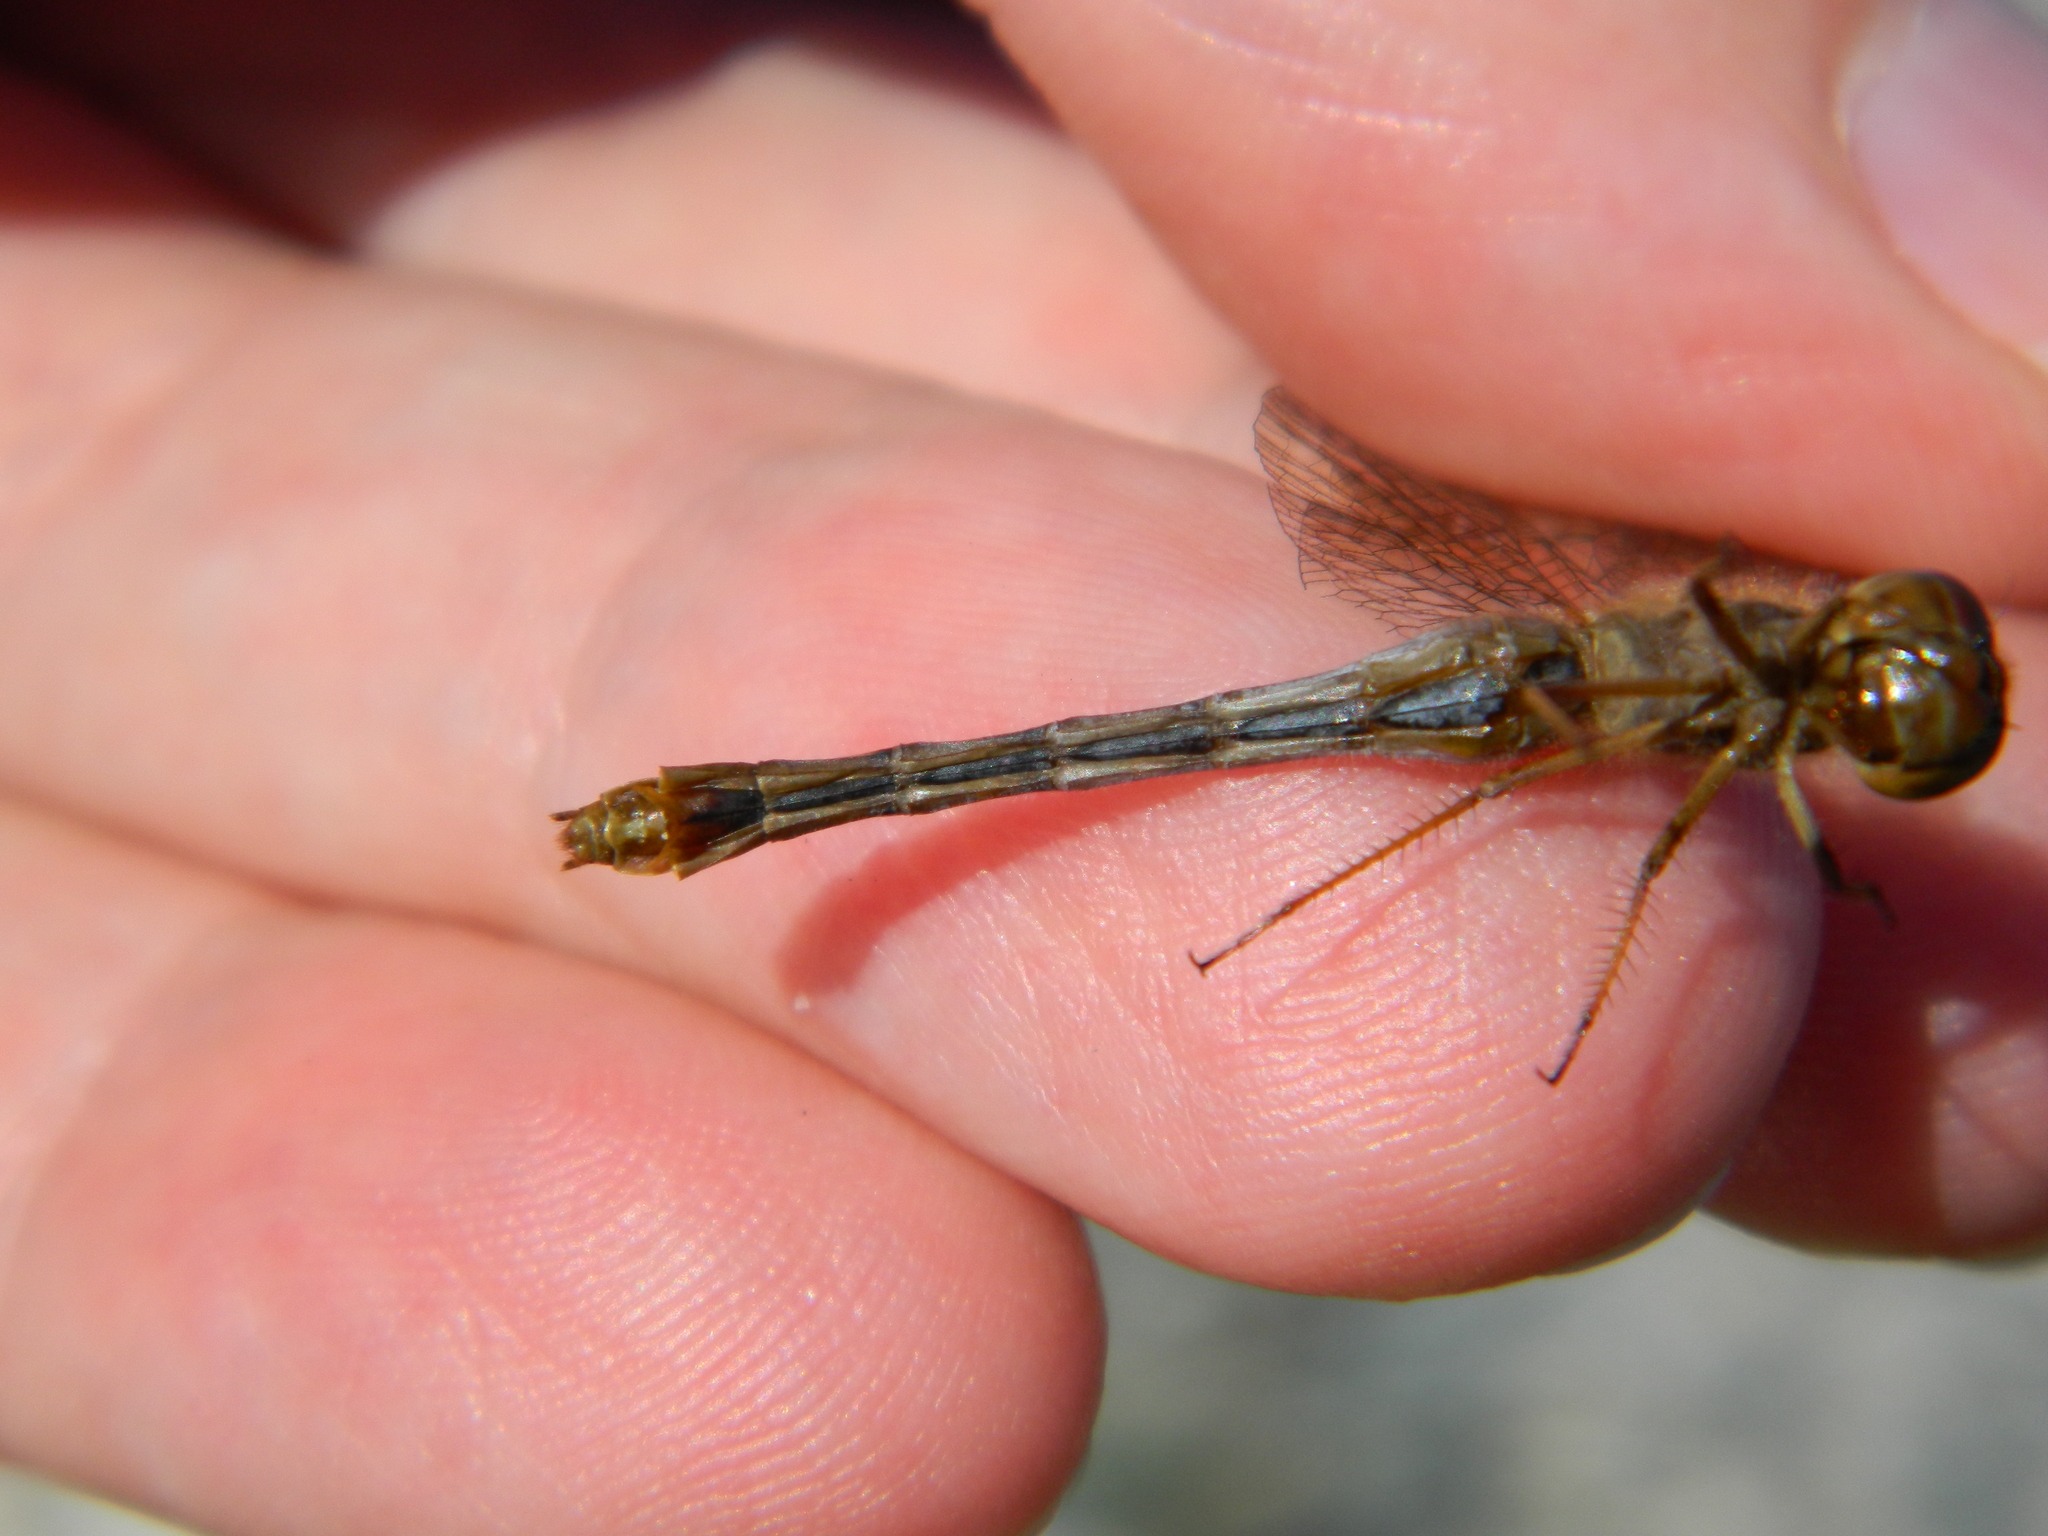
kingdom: Animalia
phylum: Arthropoda
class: Insecta
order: Odonata
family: Libellulidae
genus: Sympetrum
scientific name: Sympetrum vicinum
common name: Autumn meadowhawk
